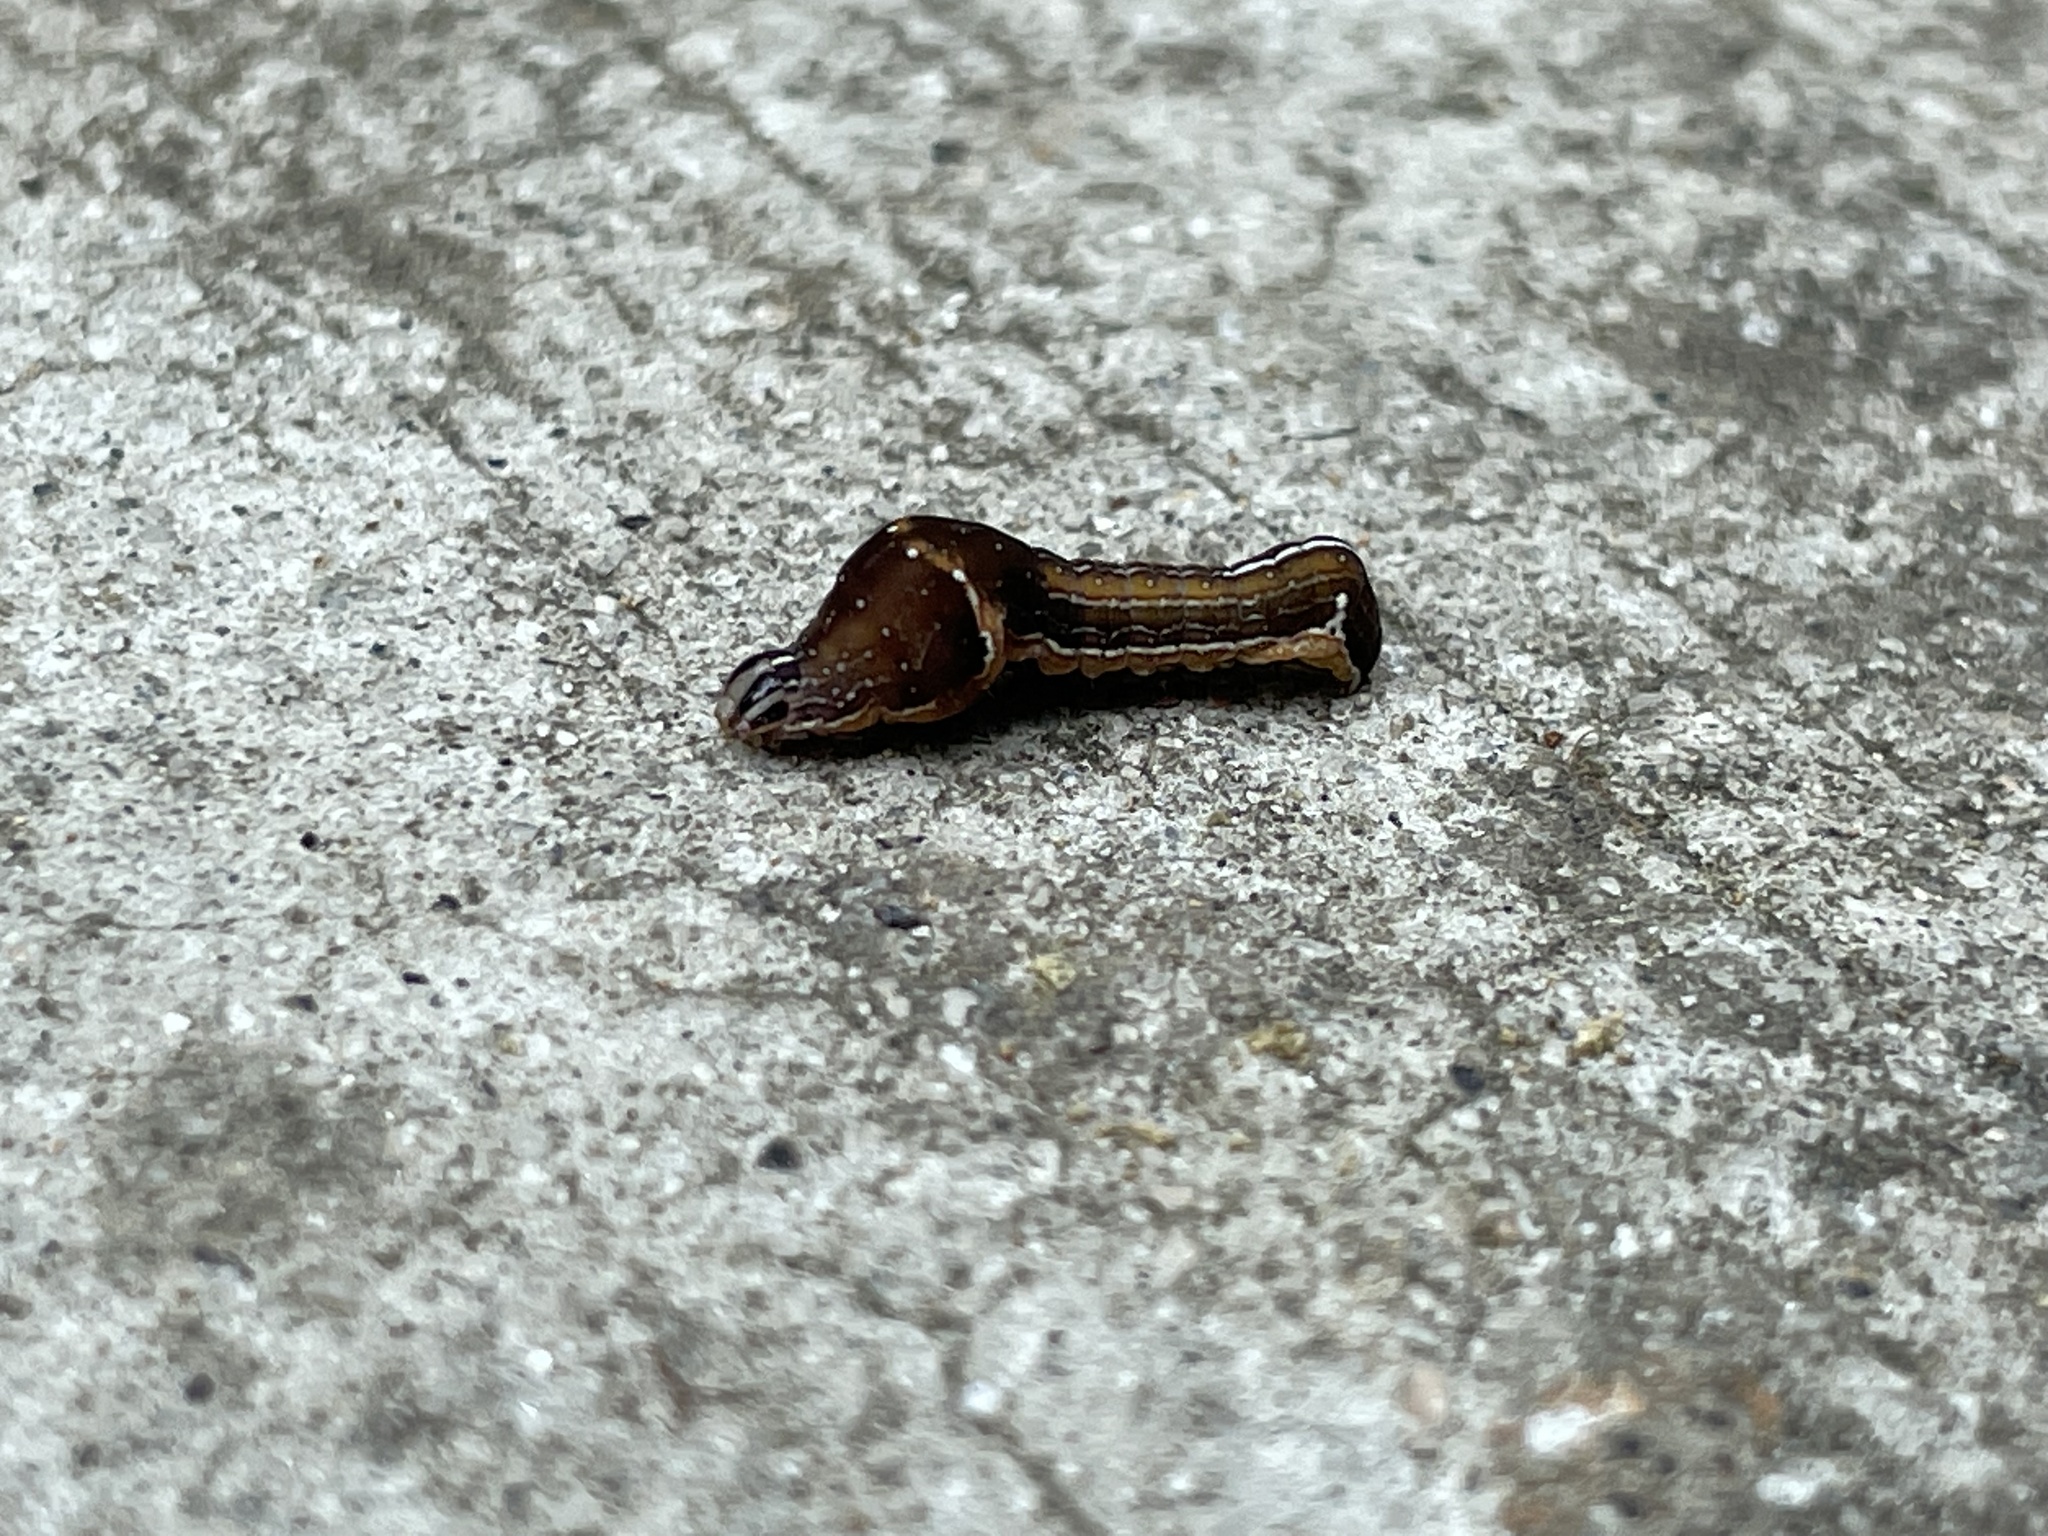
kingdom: Animalia
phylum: Arthropoda
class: Insecta
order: Lepidoptera
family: Noctuidae
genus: Galgula
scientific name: Galgula partita
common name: Wedgeling
